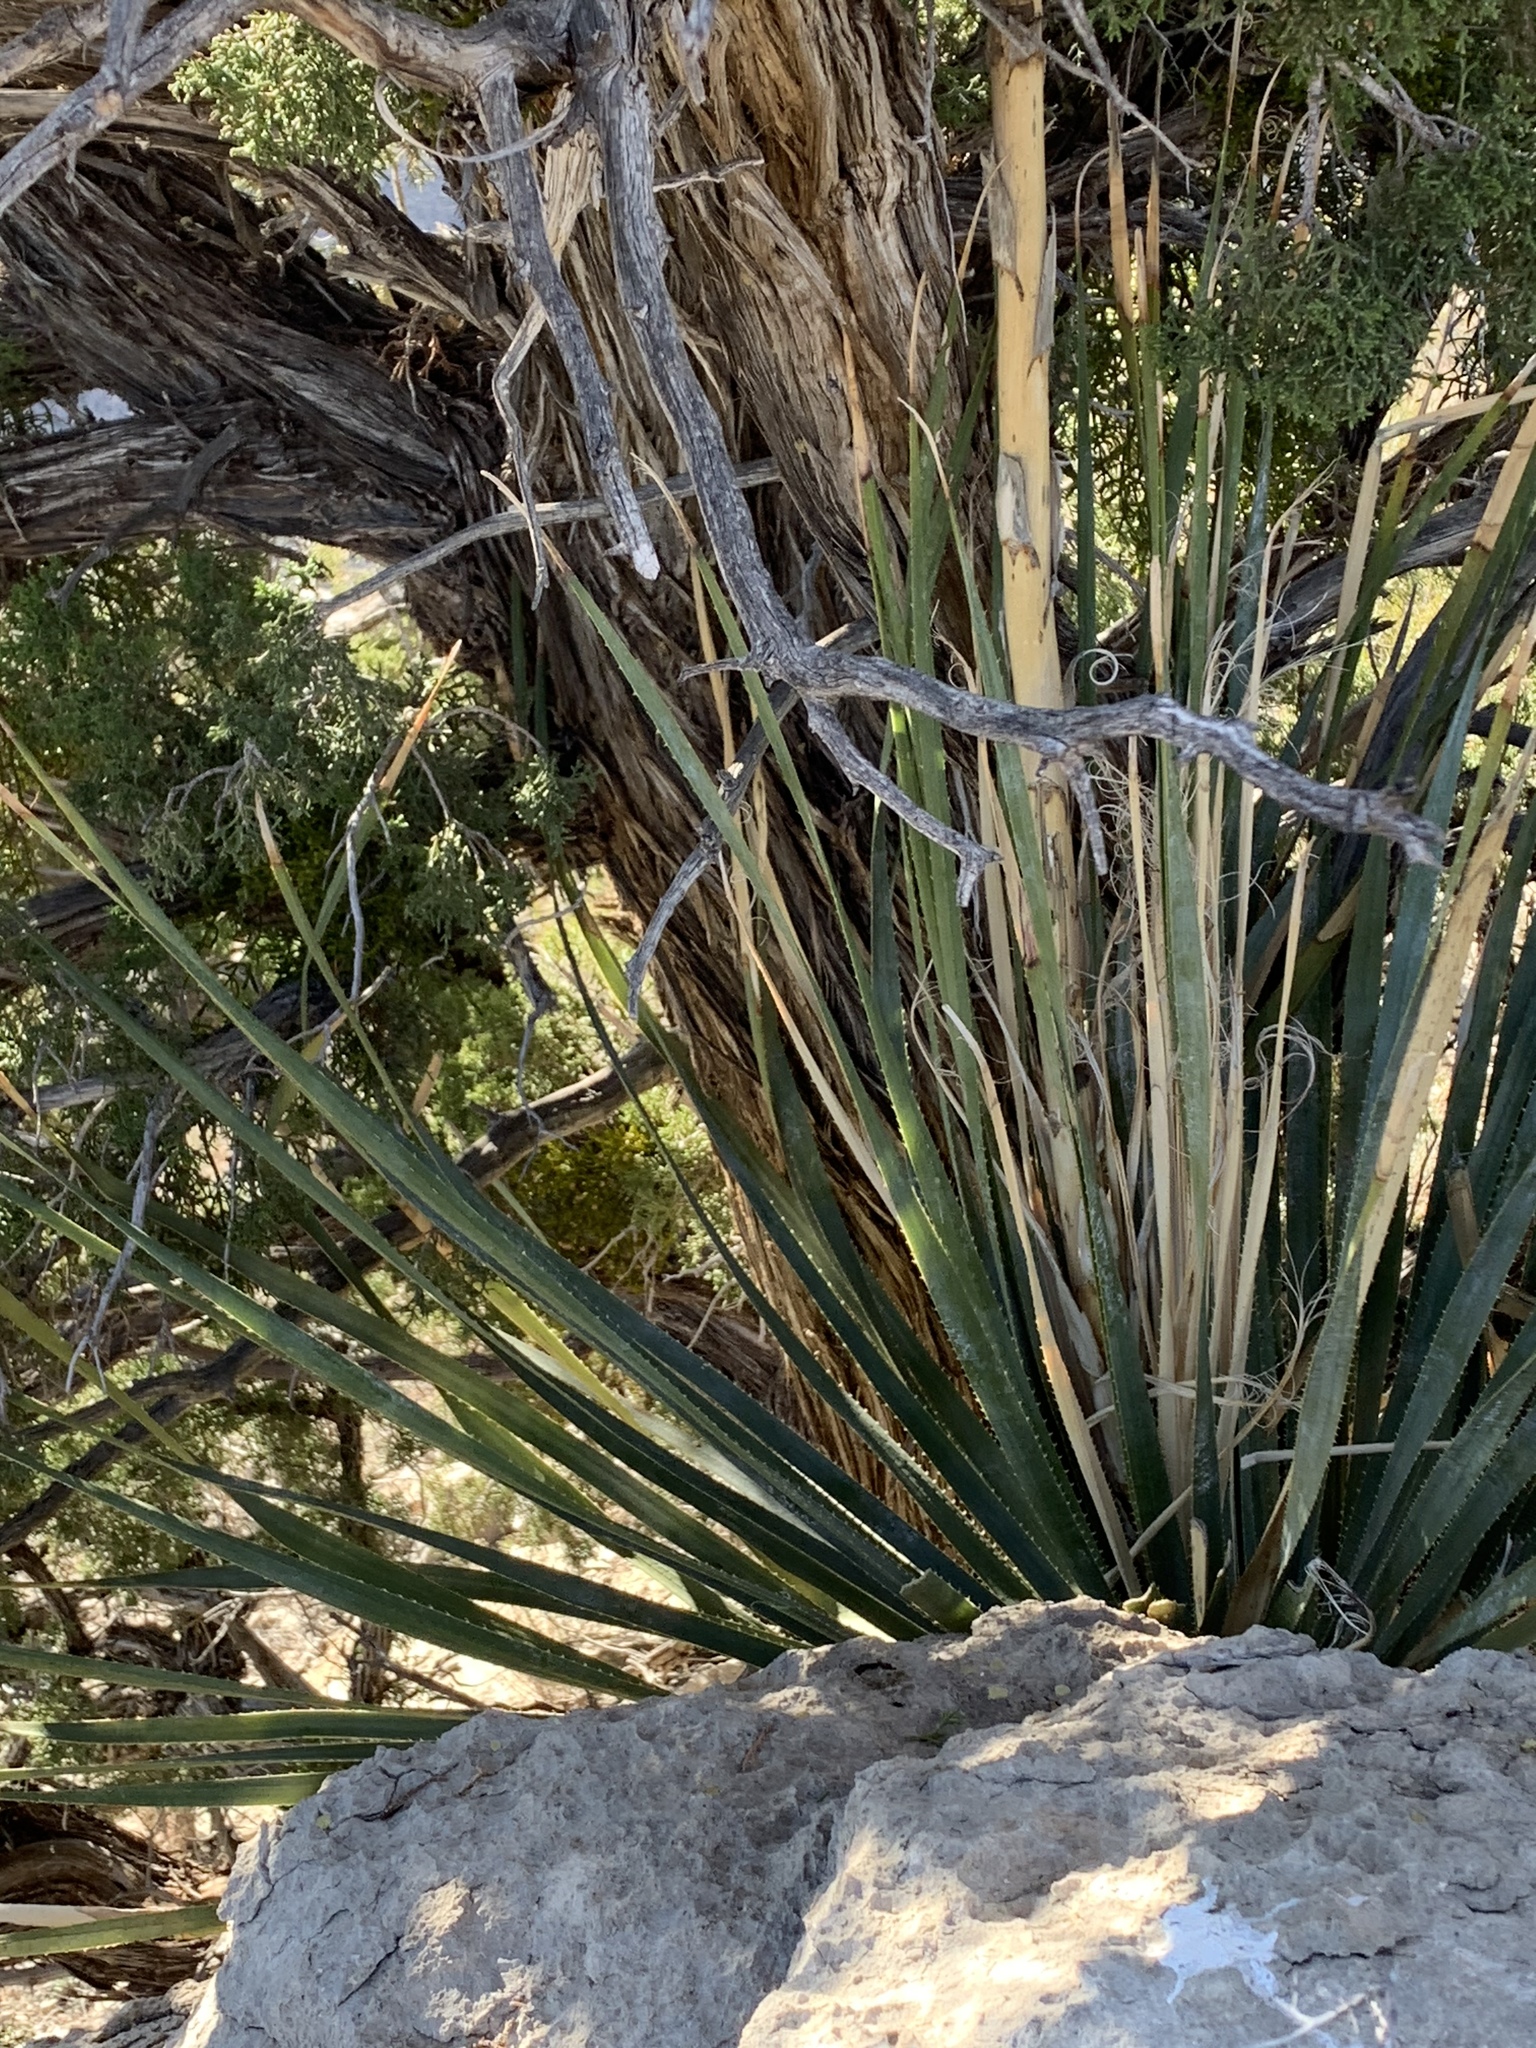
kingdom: Plantae
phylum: Tracheophyta
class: Liliopsida
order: Asparagales
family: Asparagaceae
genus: Dasylirion
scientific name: Dasylirion wheeleri
